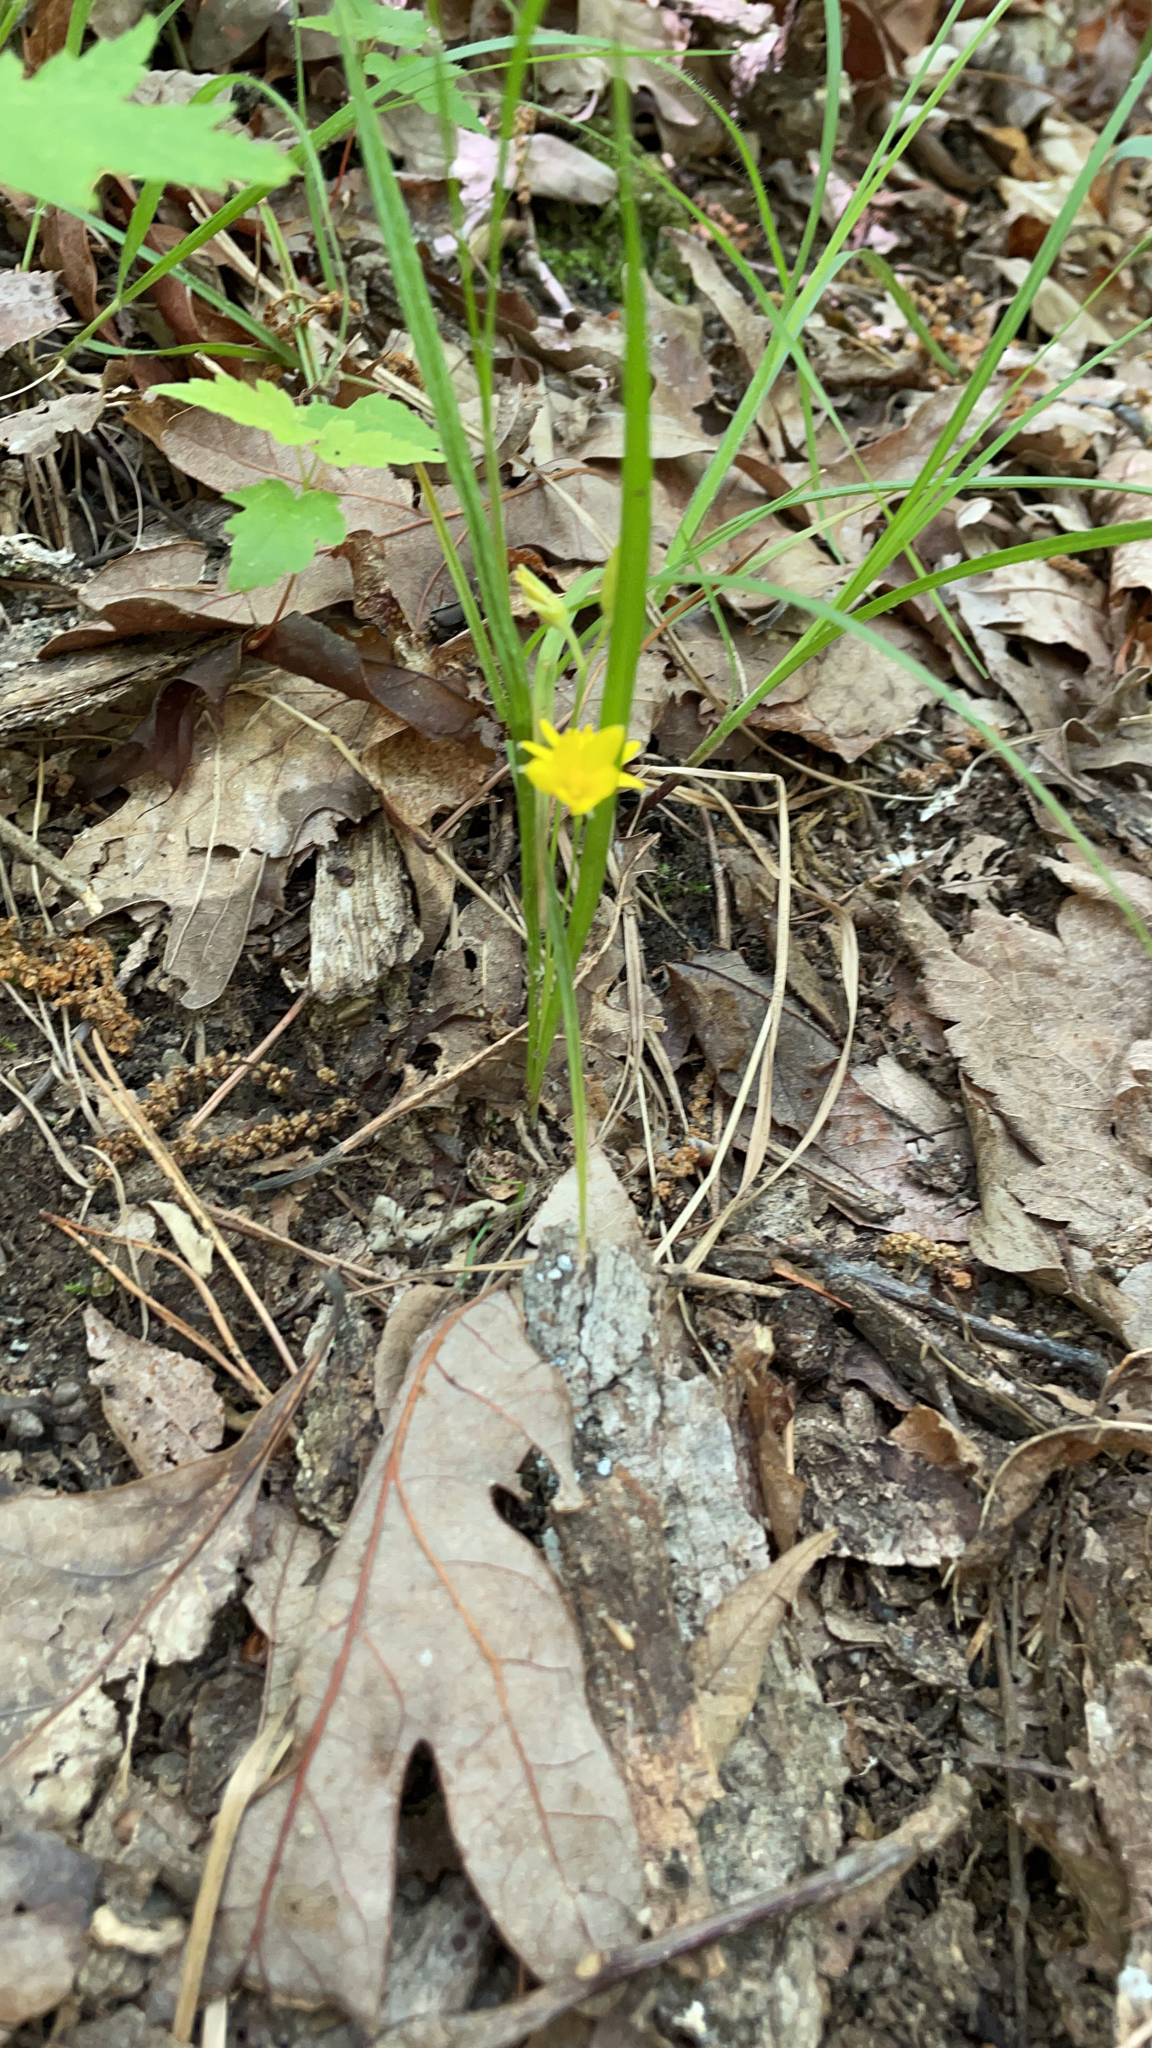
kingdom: Plantae
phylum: Tracheophyta
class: Liliopsida
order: Asparagales
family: Hypoxidaceae
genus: Hypoxis
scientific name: Hypoxis hirsuta
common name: Common goldstar
